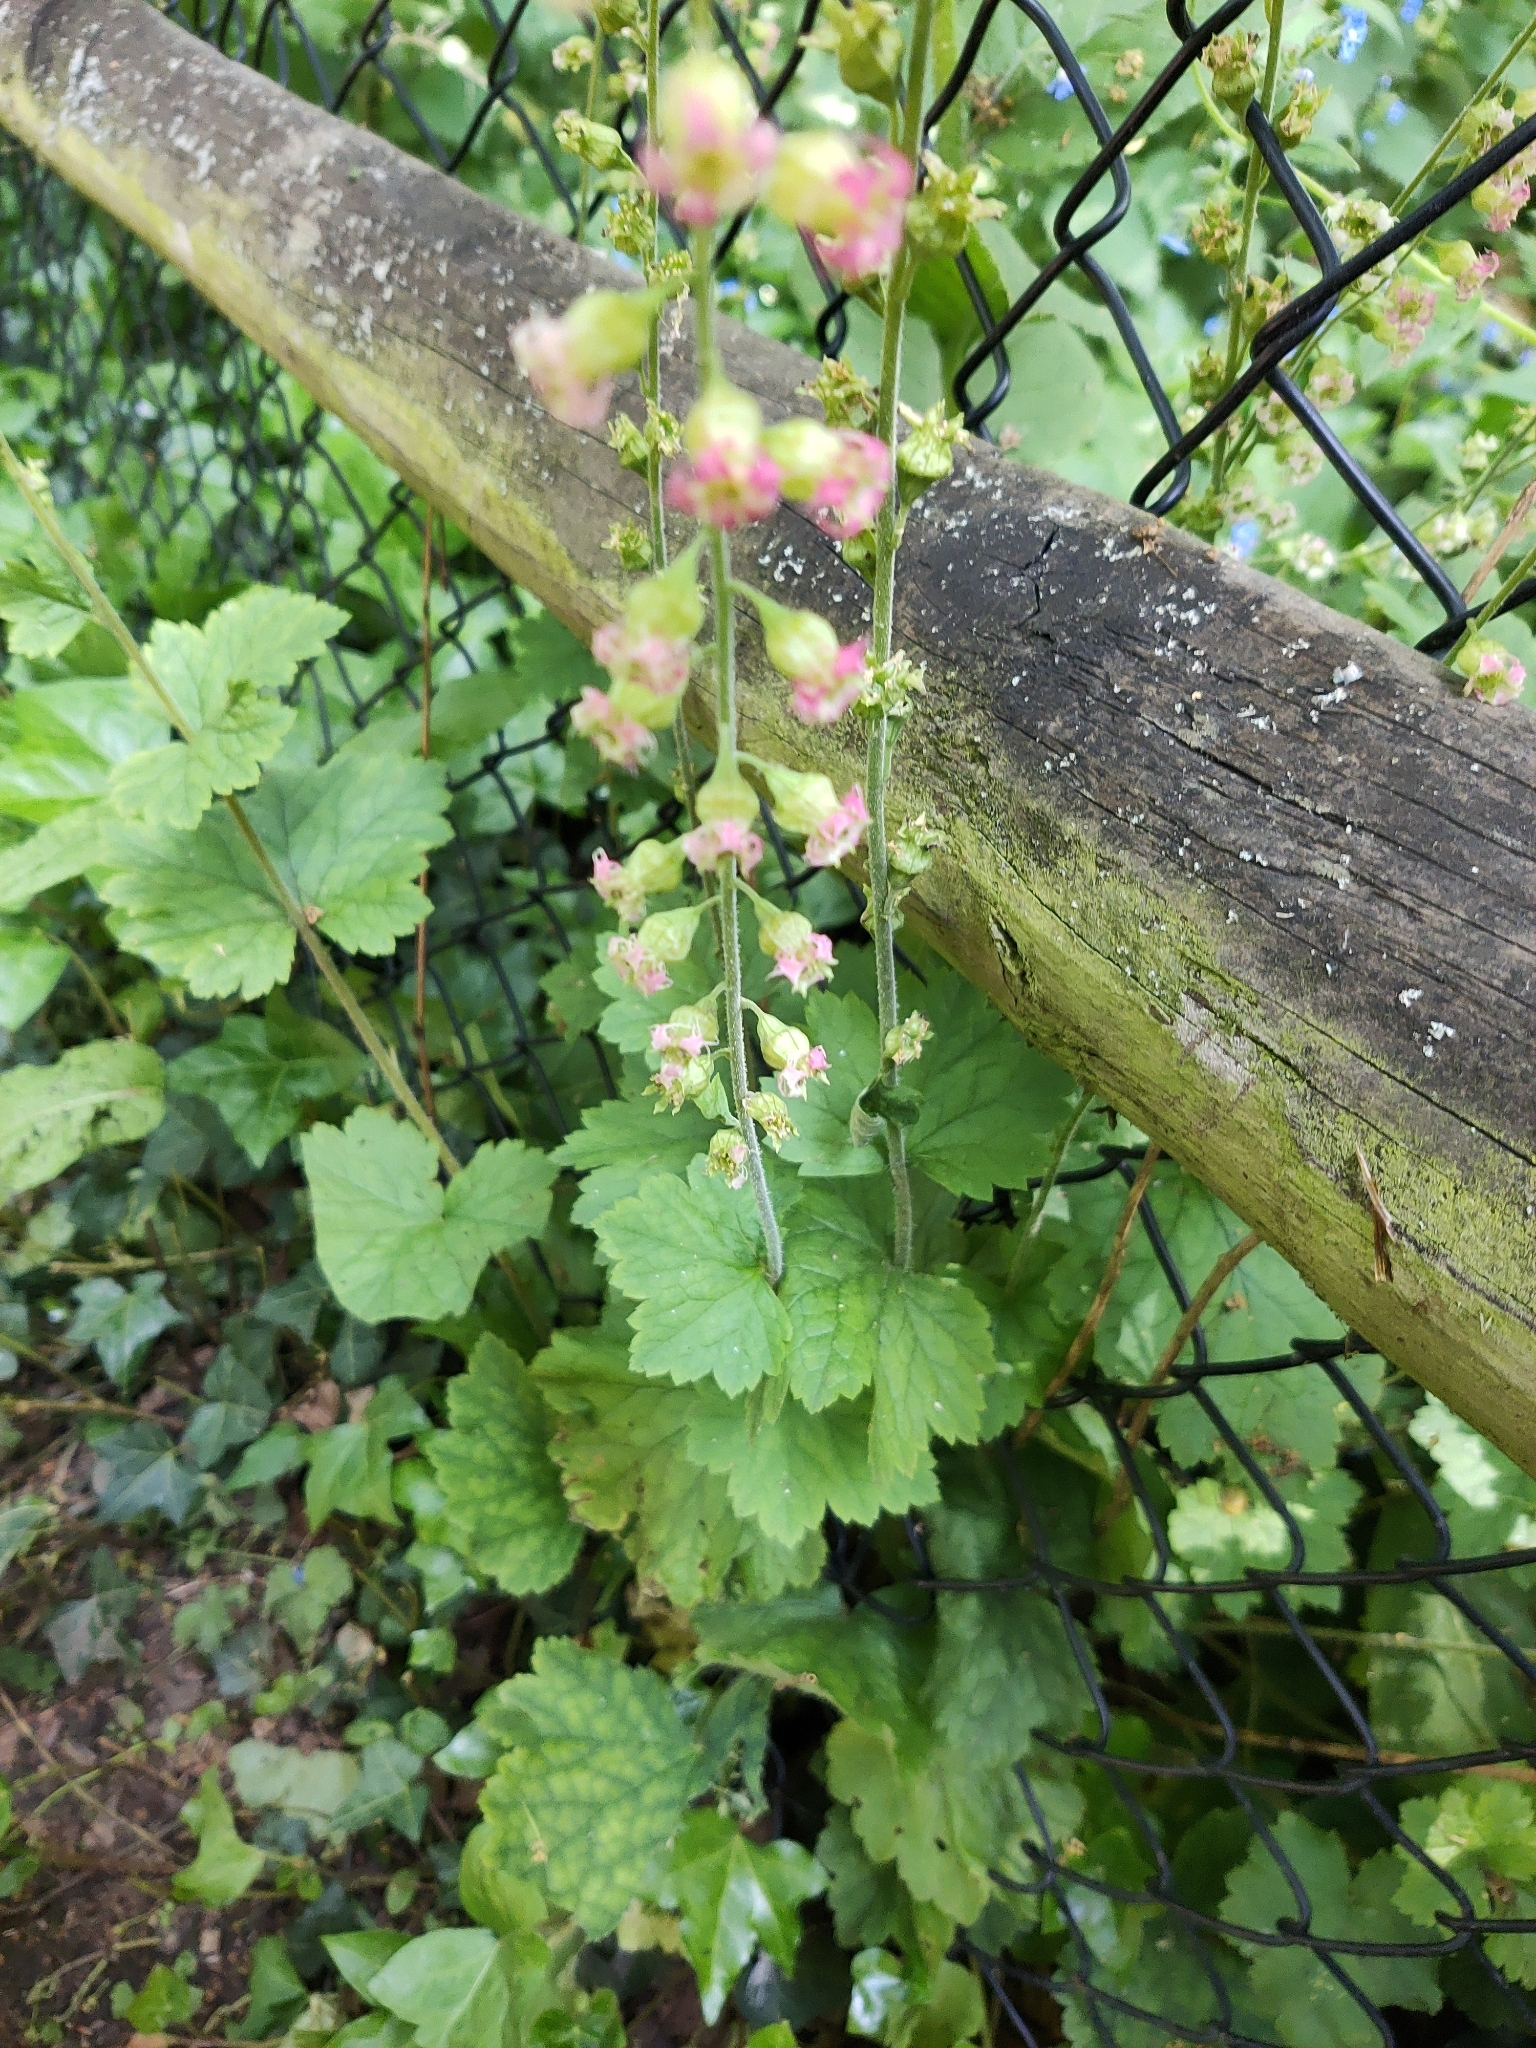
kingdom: Plantae
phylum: Tracheophyta
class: Magnoliopsida
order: Saxifragales
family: Saxifragaceae
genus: Tellima
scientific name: Tellima grandiflora
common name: Fringecups
